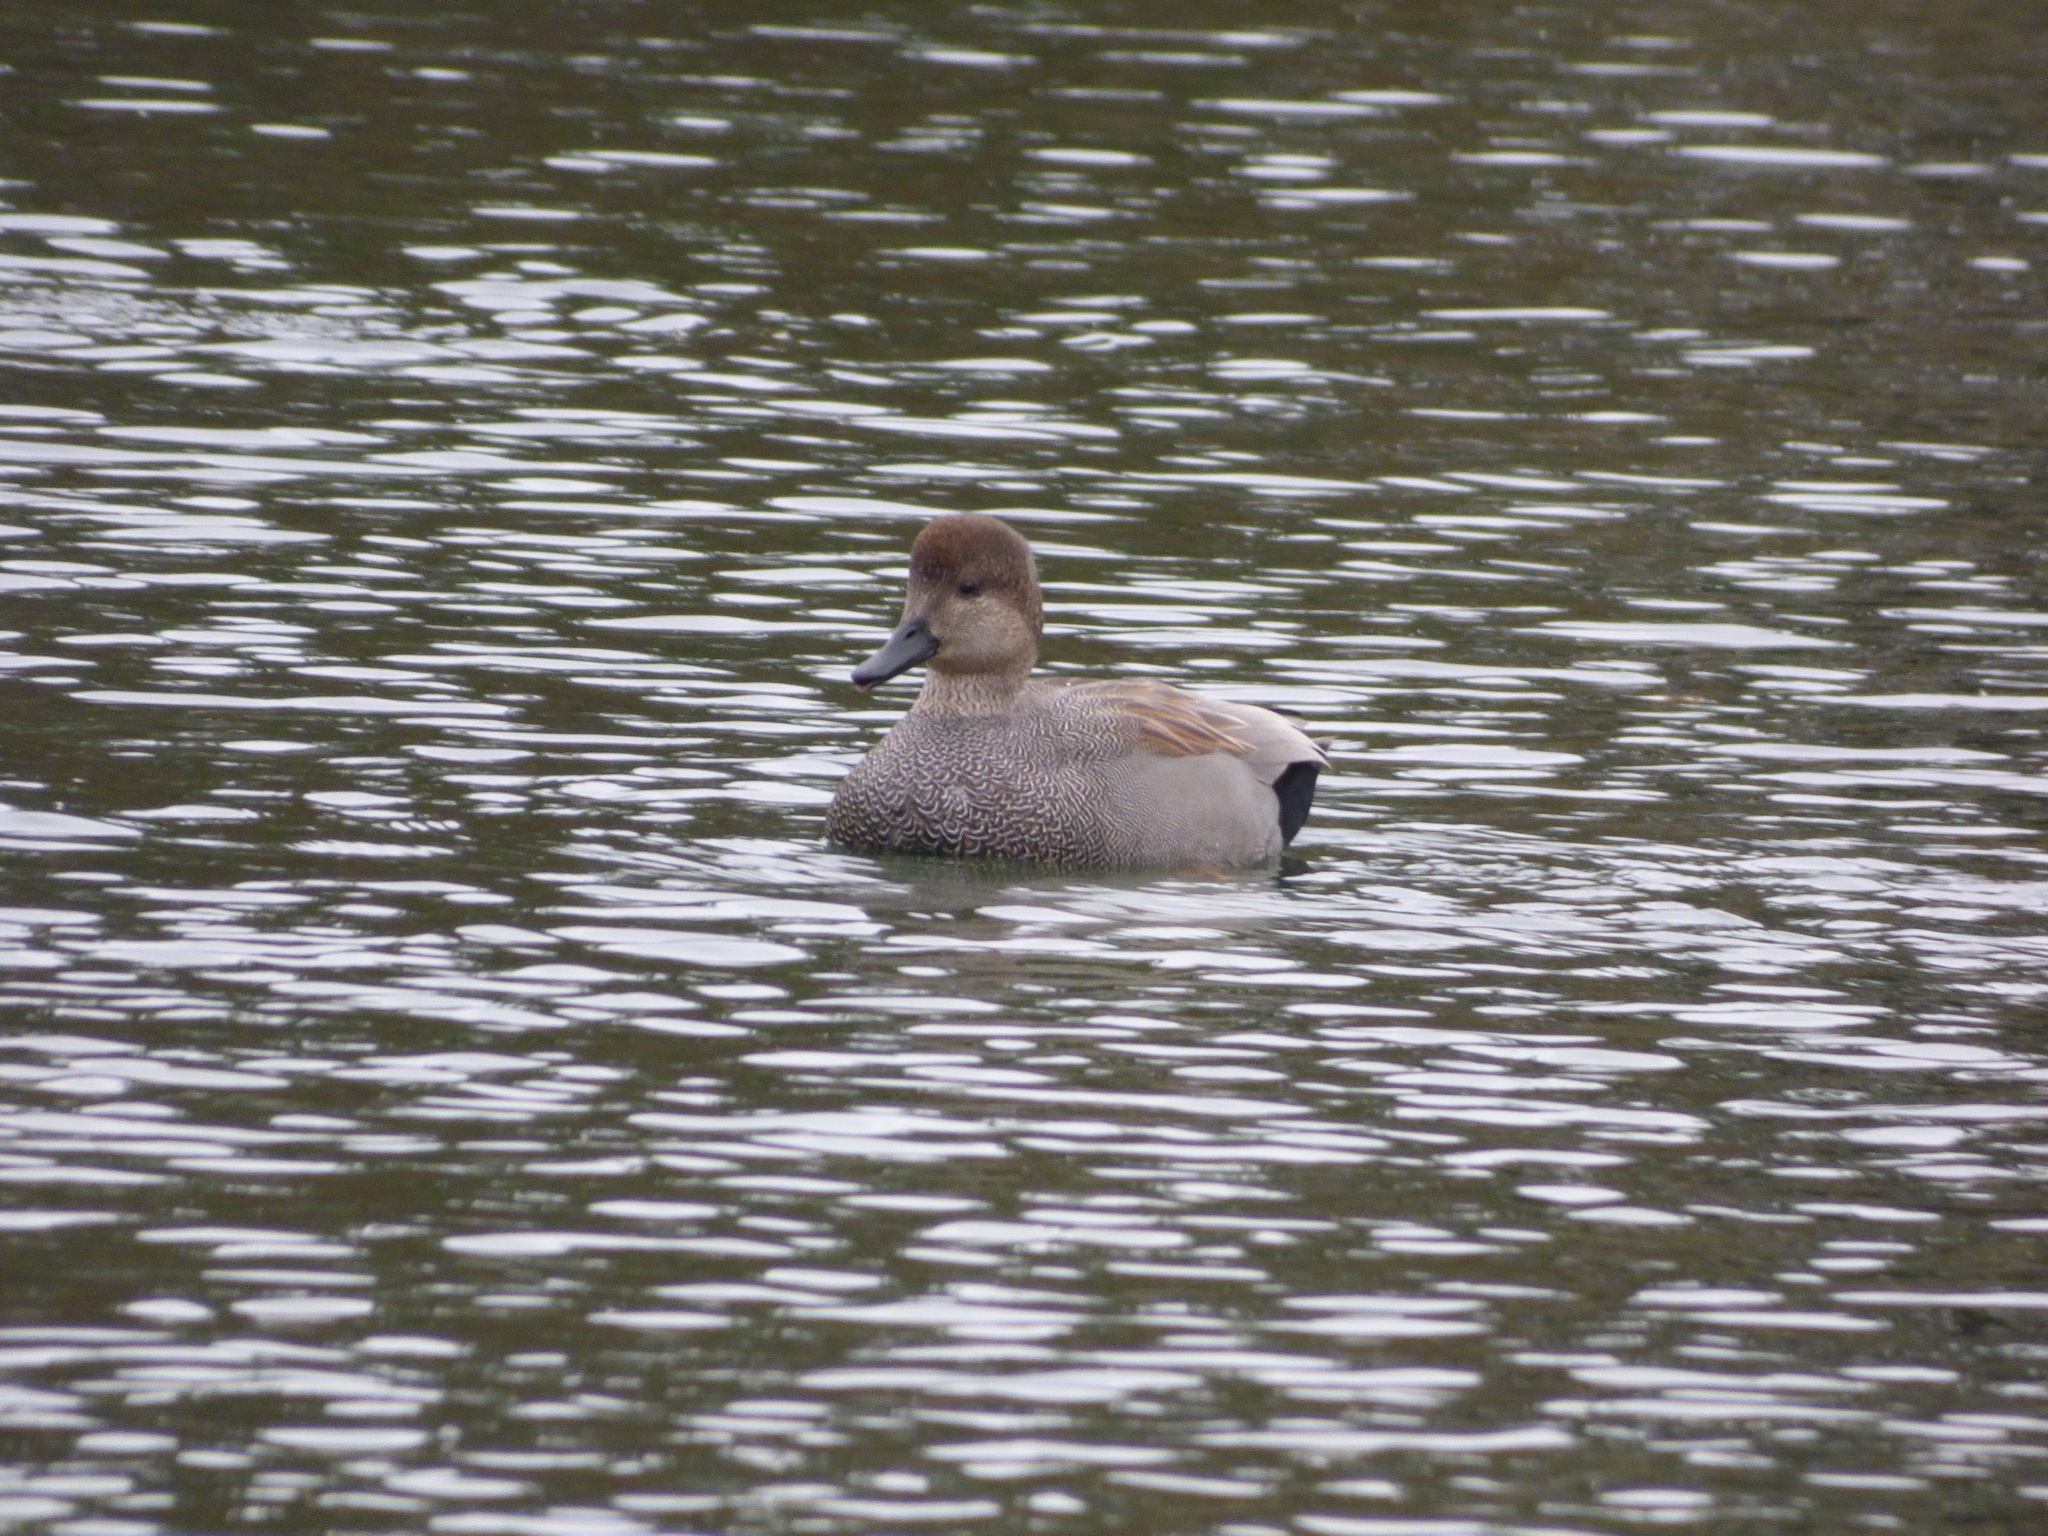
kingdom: Animalia
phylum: Chordata
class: Aves
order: Anseriformes
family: Anatidae
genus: Mareca
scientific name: Mareca strepera
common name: Gadwall
